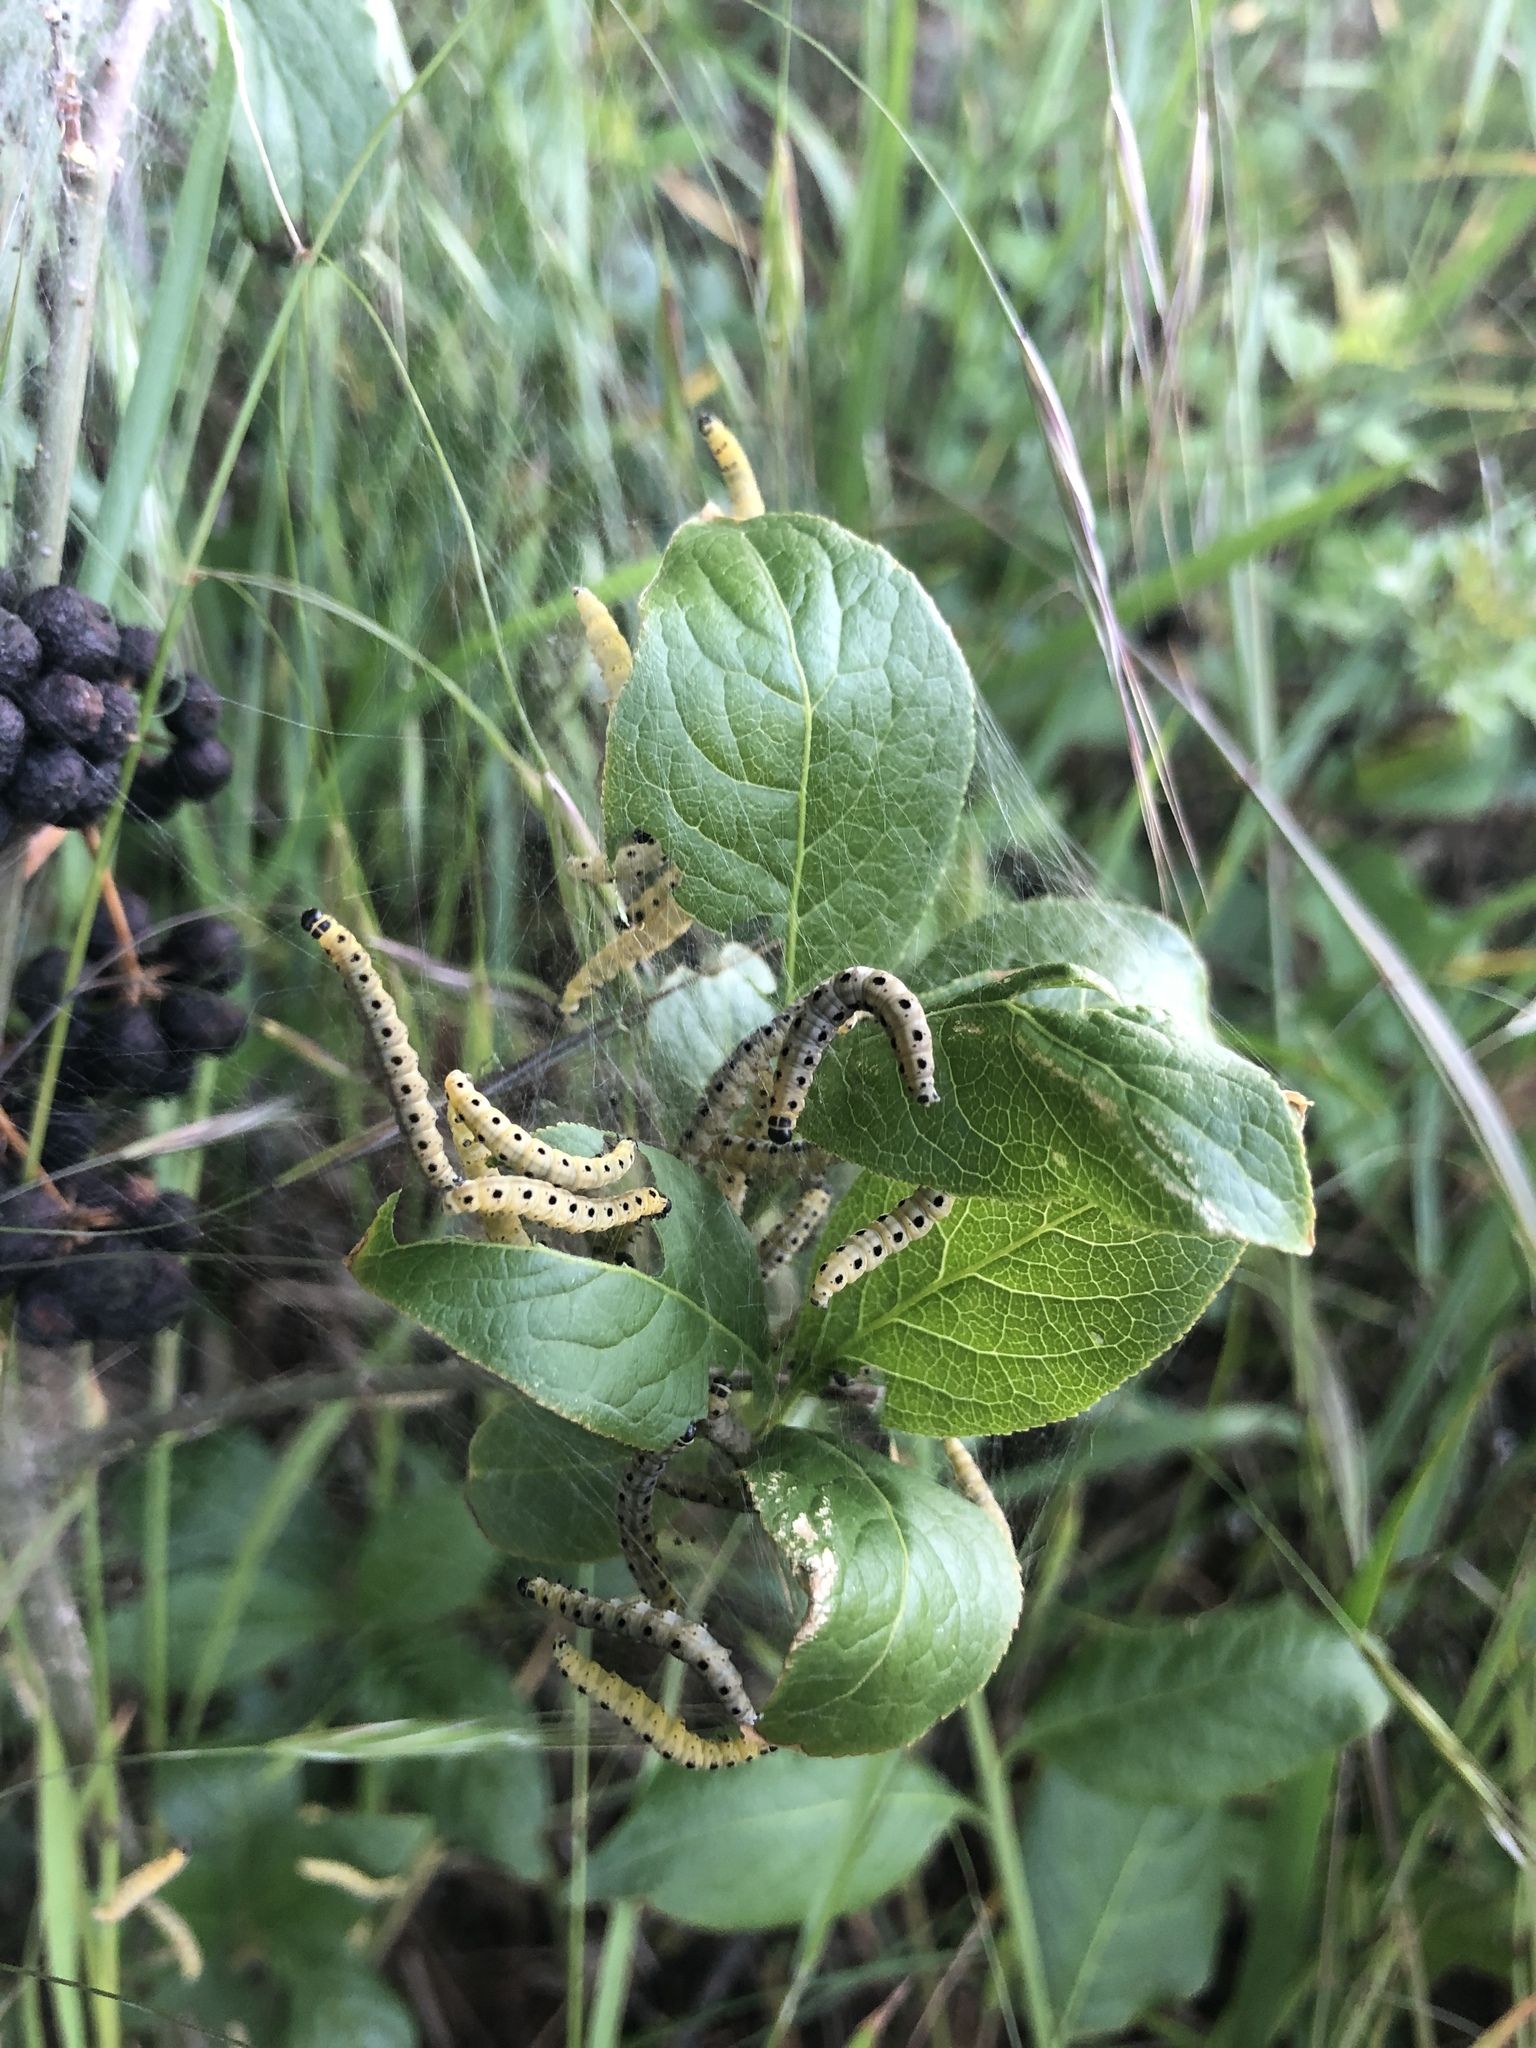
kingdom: Animalia
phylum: Arthropoda
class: Insecta
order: Lepidoptera
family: Yponomeutidae
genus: Yponomeuta
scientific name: Yponomeuta cagnagellus
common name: Spindle ermine
